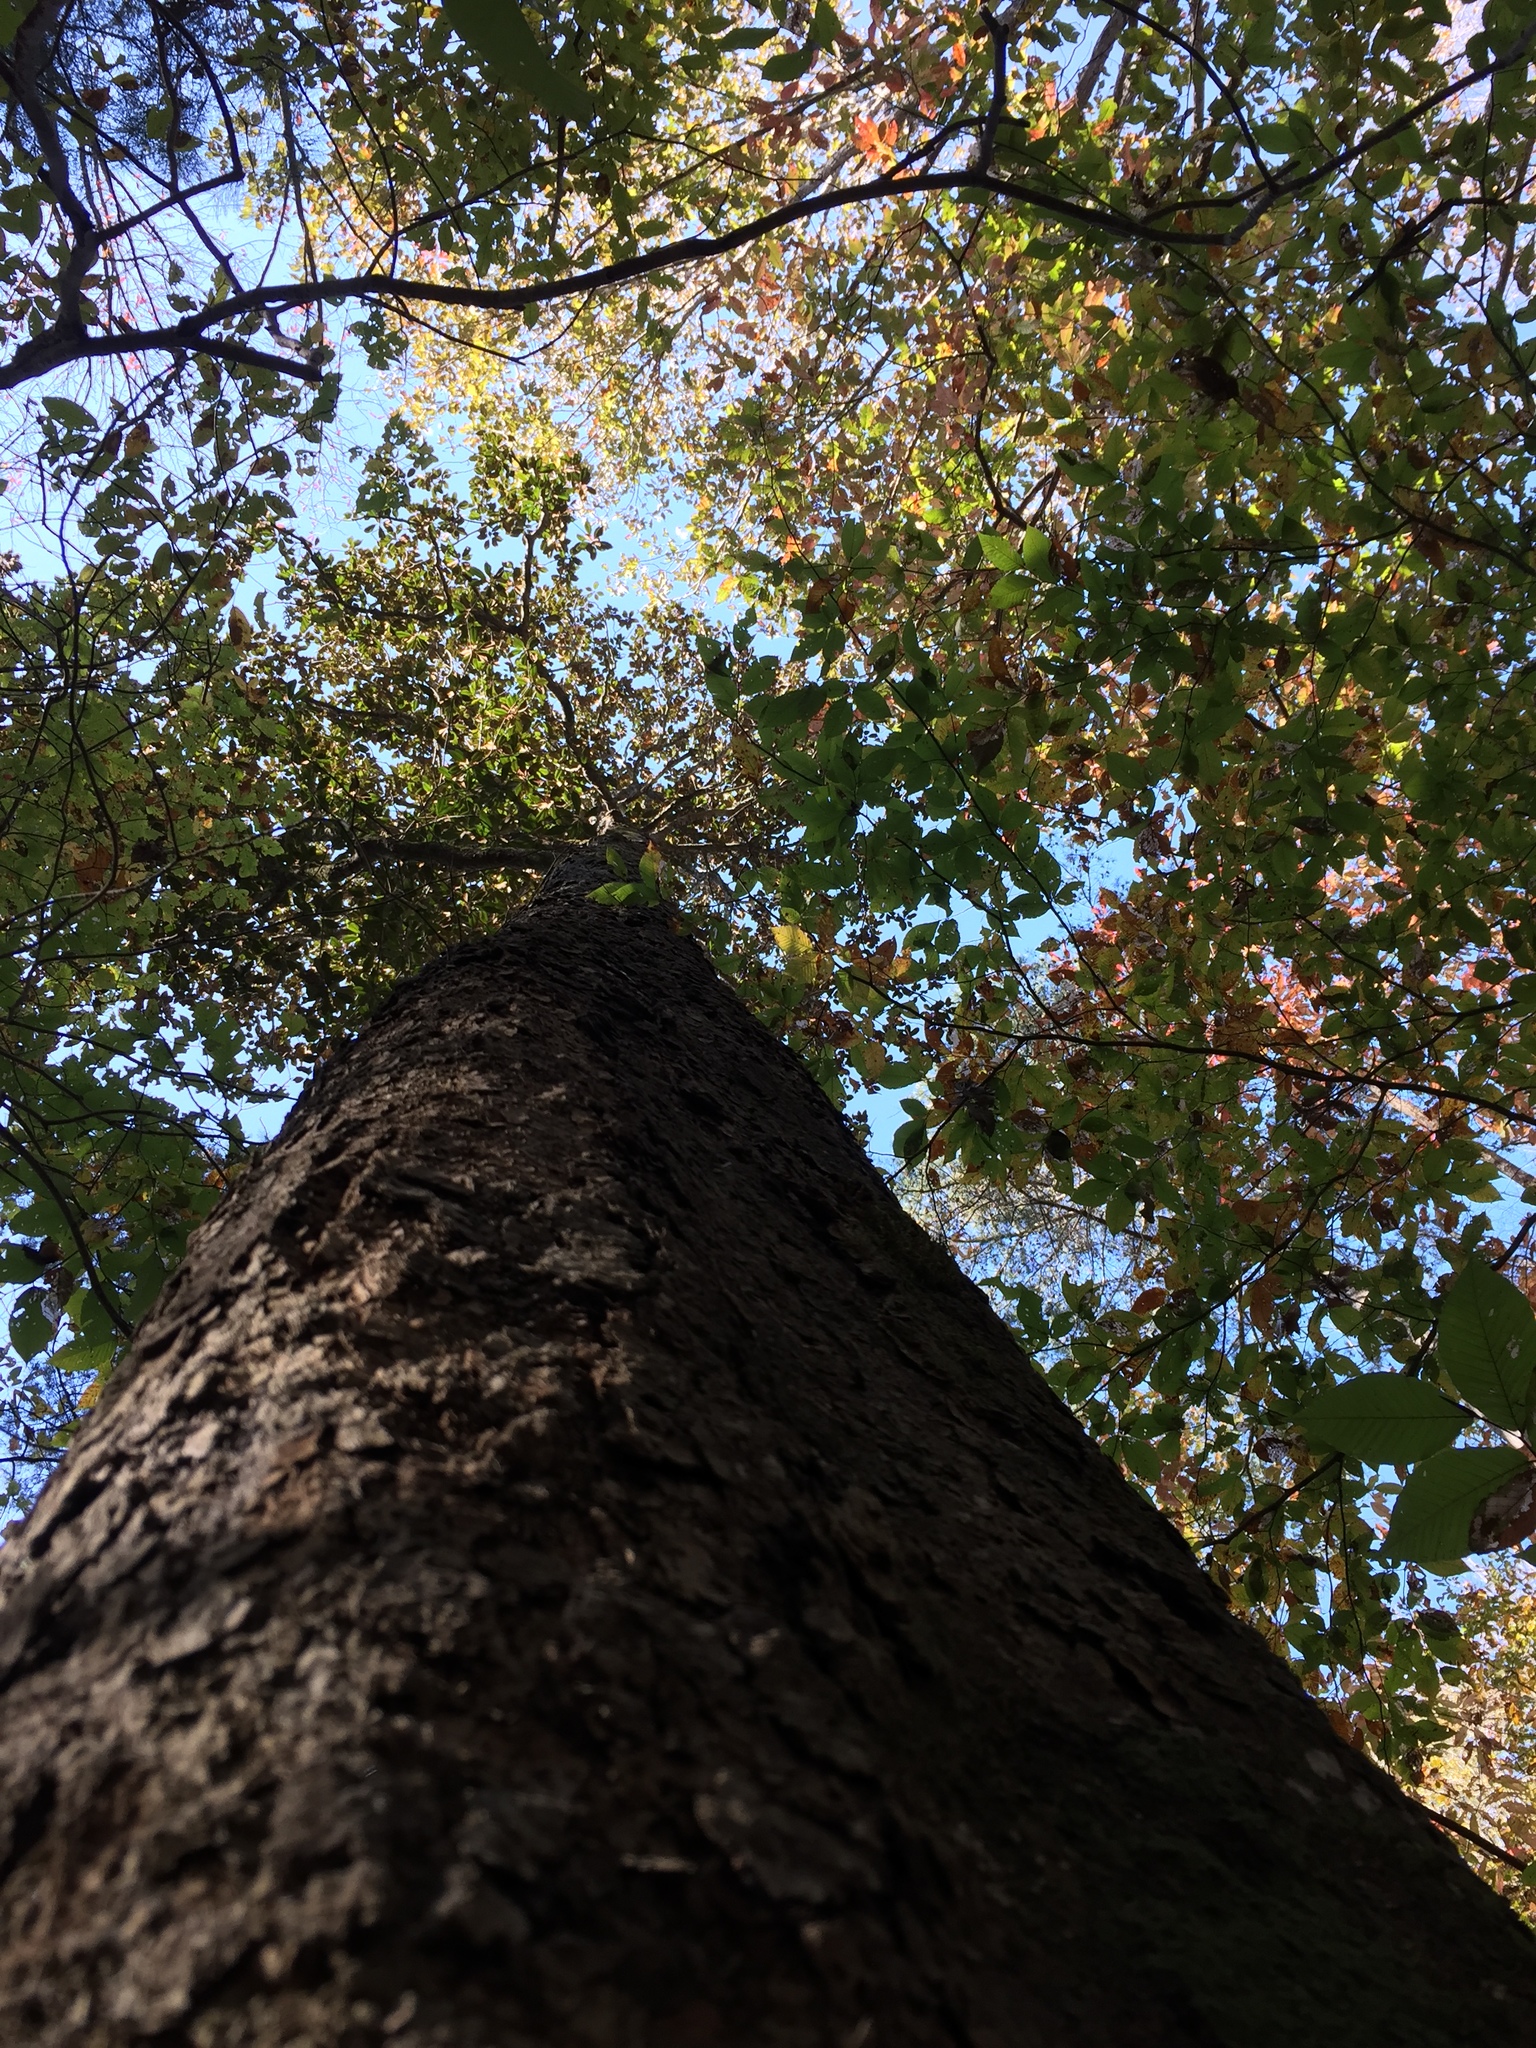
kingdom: Plantae
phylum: Tracheophyta
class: Magnoliopsida
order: Magnoliales
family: Magnoliaceae
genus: Magnolia
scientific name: Magnolia grandiflora
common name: Southern magnolia
